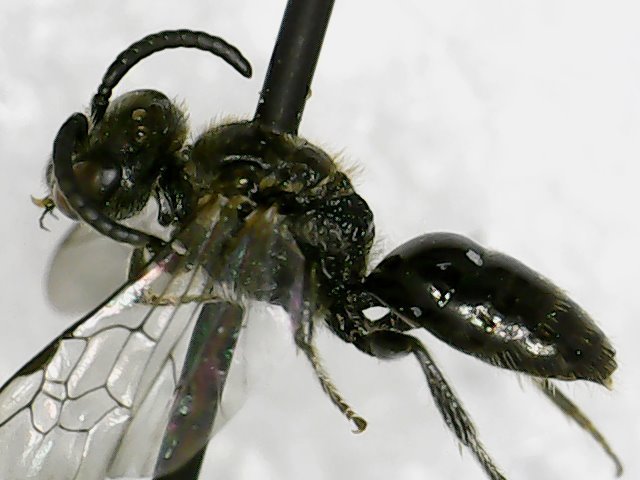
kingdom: Animalia
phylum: Arthropoda
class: Insecta
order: Hymenoptera
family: Halictidae
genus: Sphecodes
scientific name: Sphecodes atlantis
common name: Atlantic cuckoo sweat bee
